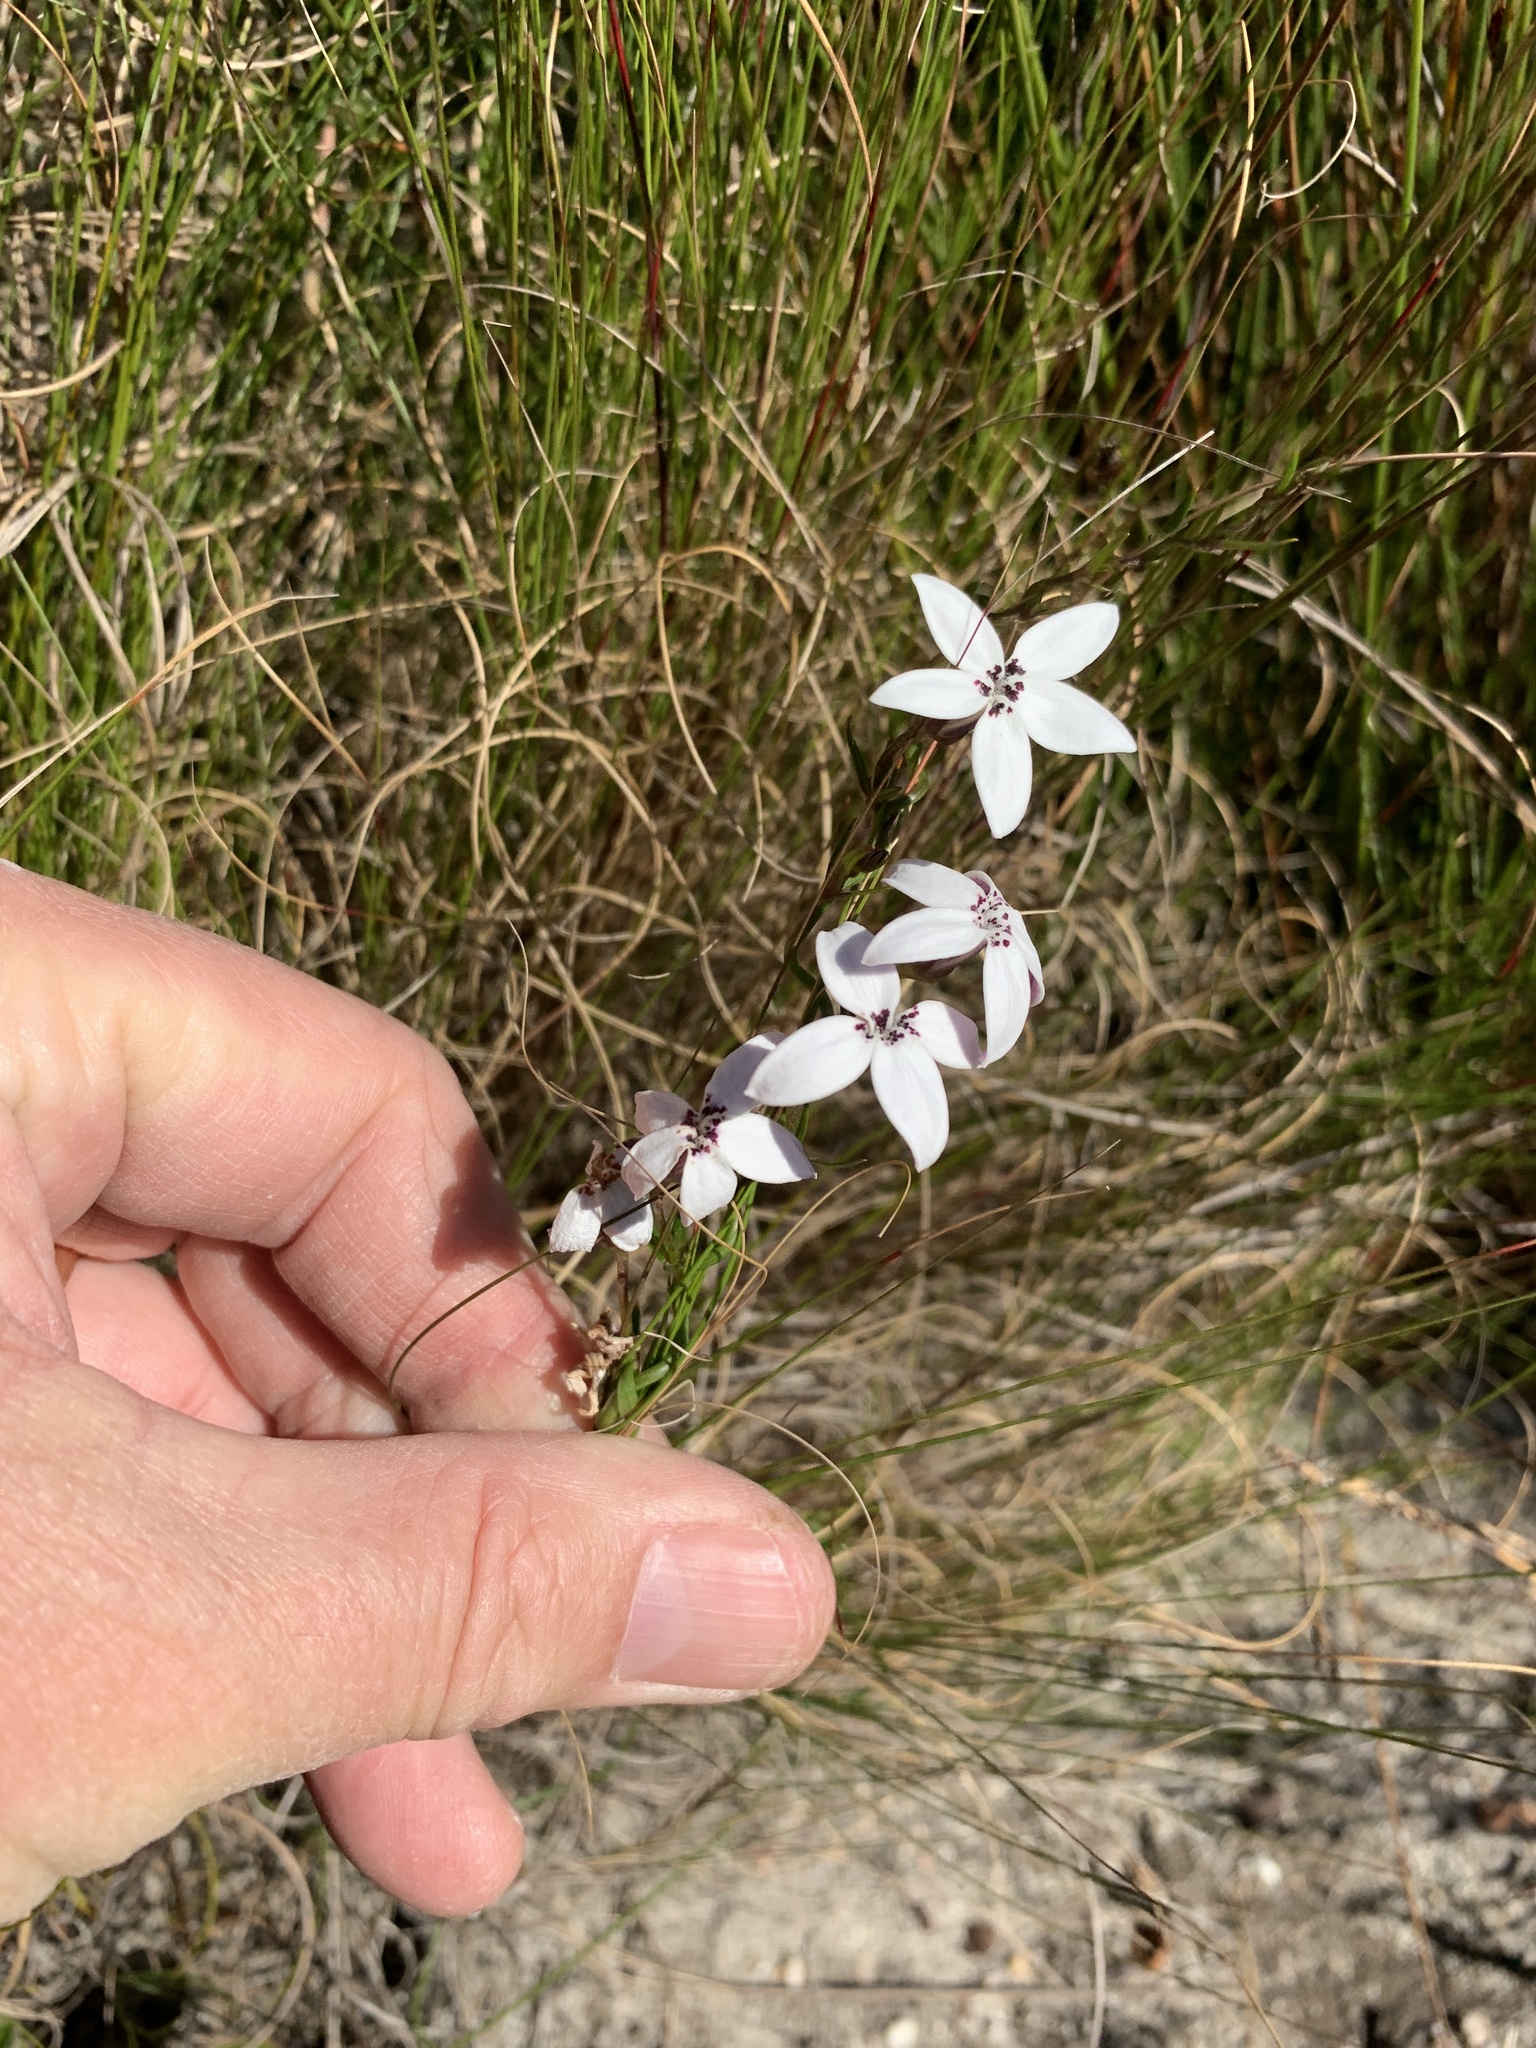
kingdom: Plantae
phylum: Tracheophyta
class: Magnoliopsida
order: Asterales
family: Campanulaceae
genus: Cyphia
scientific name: Cyphia volubilis
